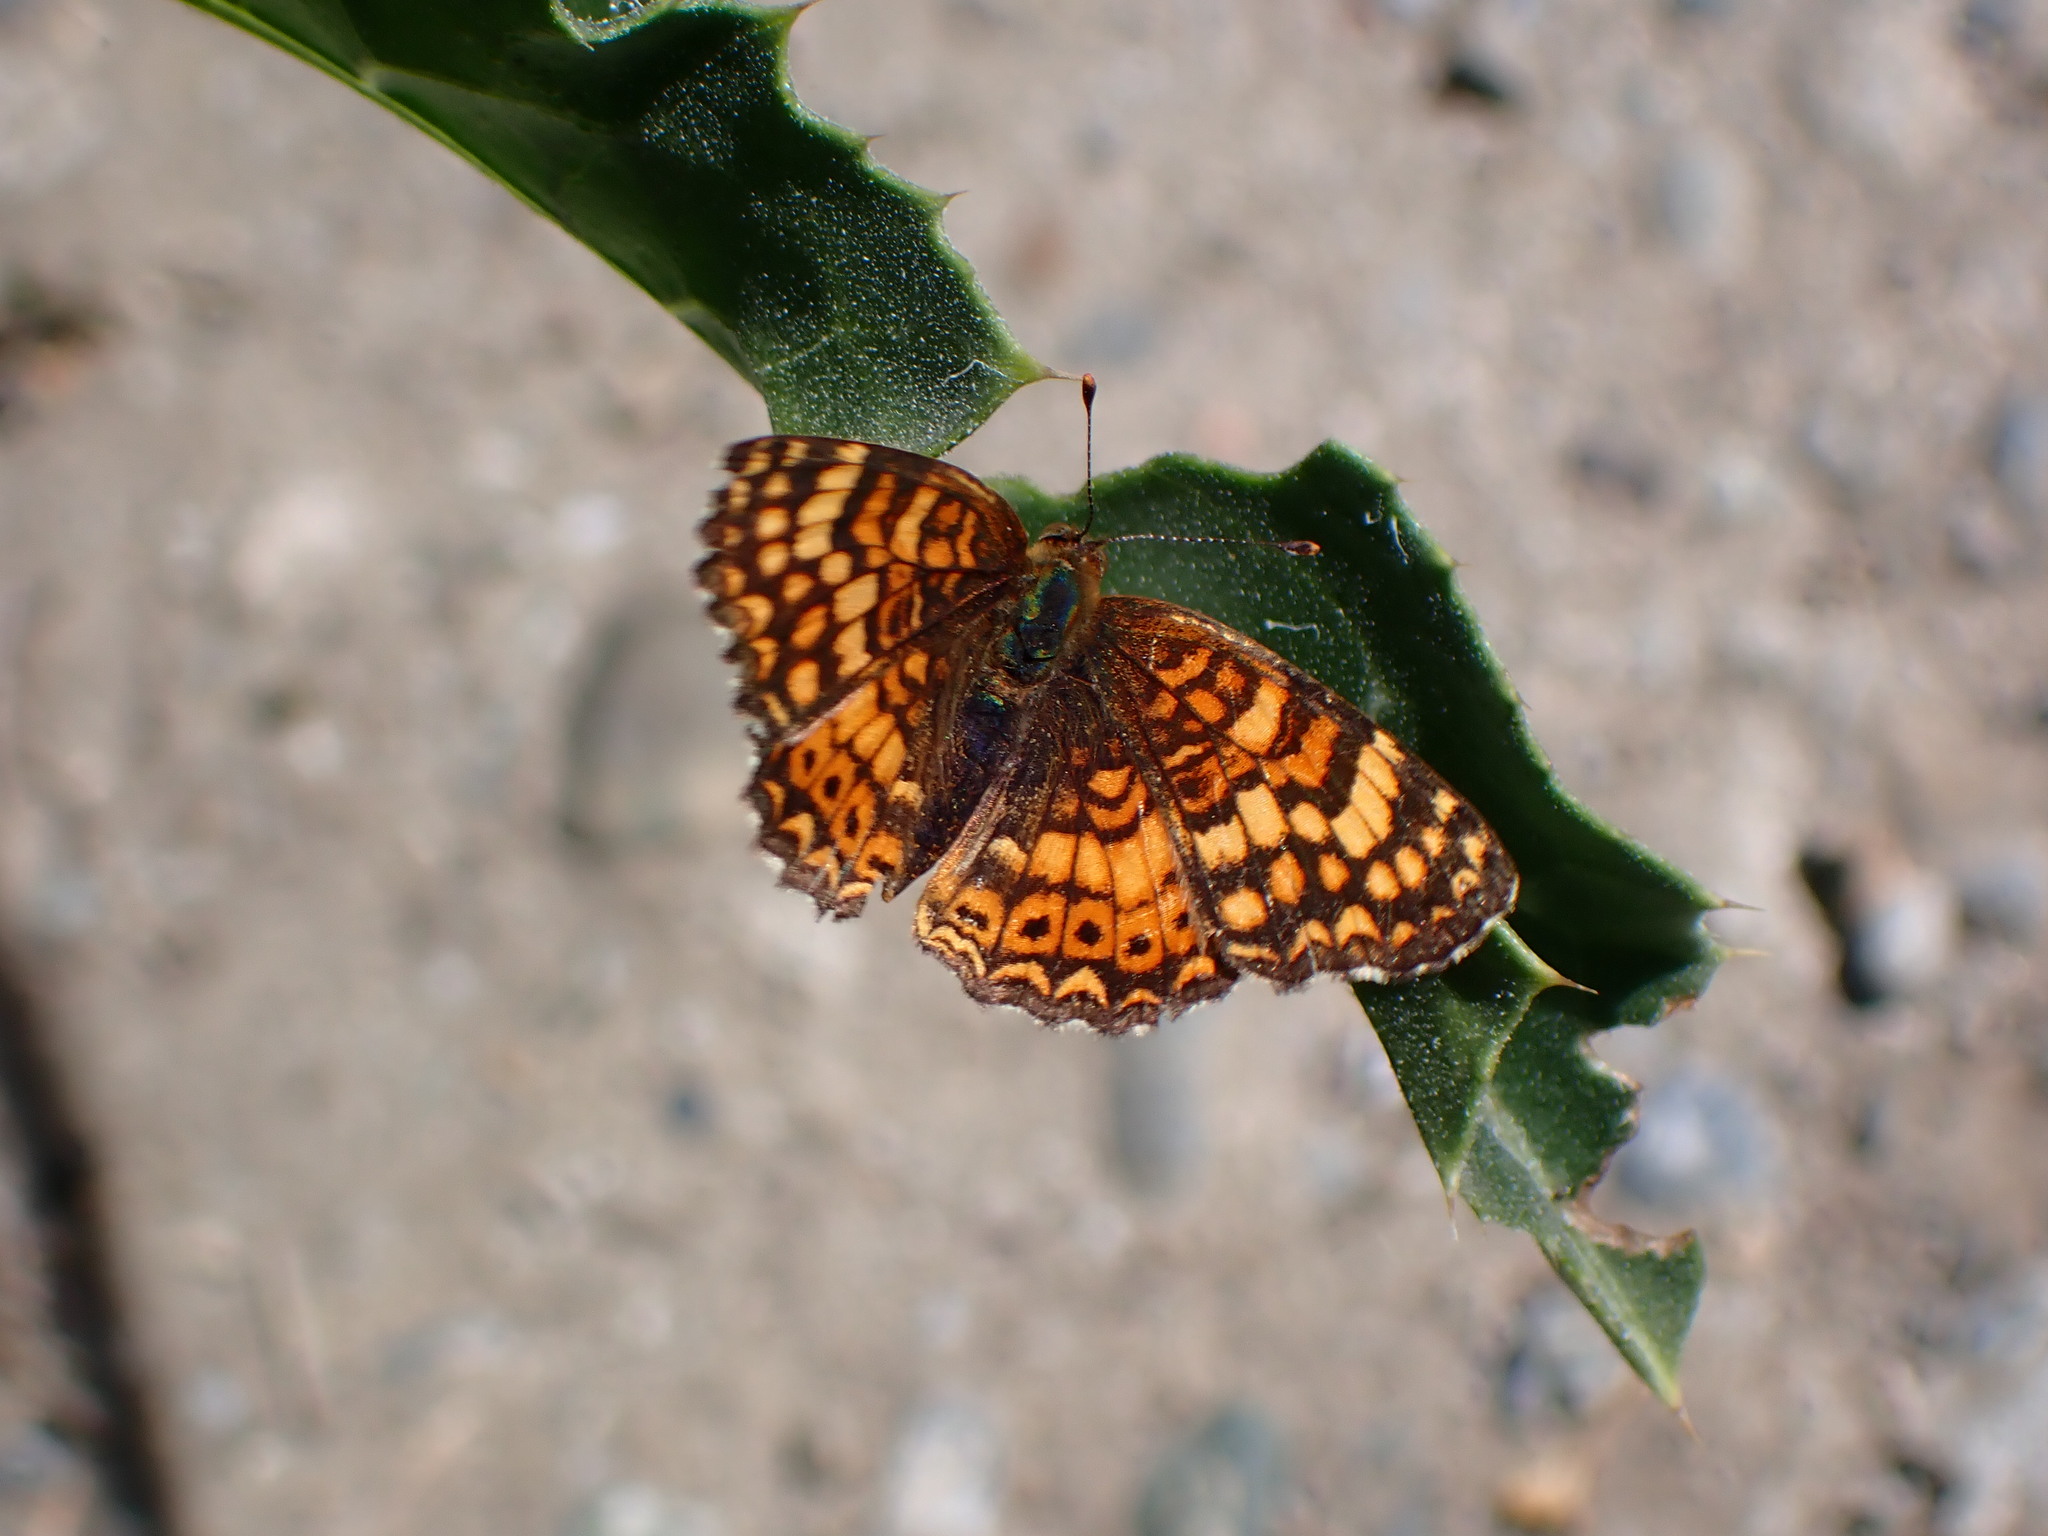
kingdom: Animalia
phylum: Arthropoda
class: Insecta
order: Lepidoptera
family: Nymphalidae
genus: Phyciodes
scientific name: Phyciodes tharos
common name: Pearl crescent
